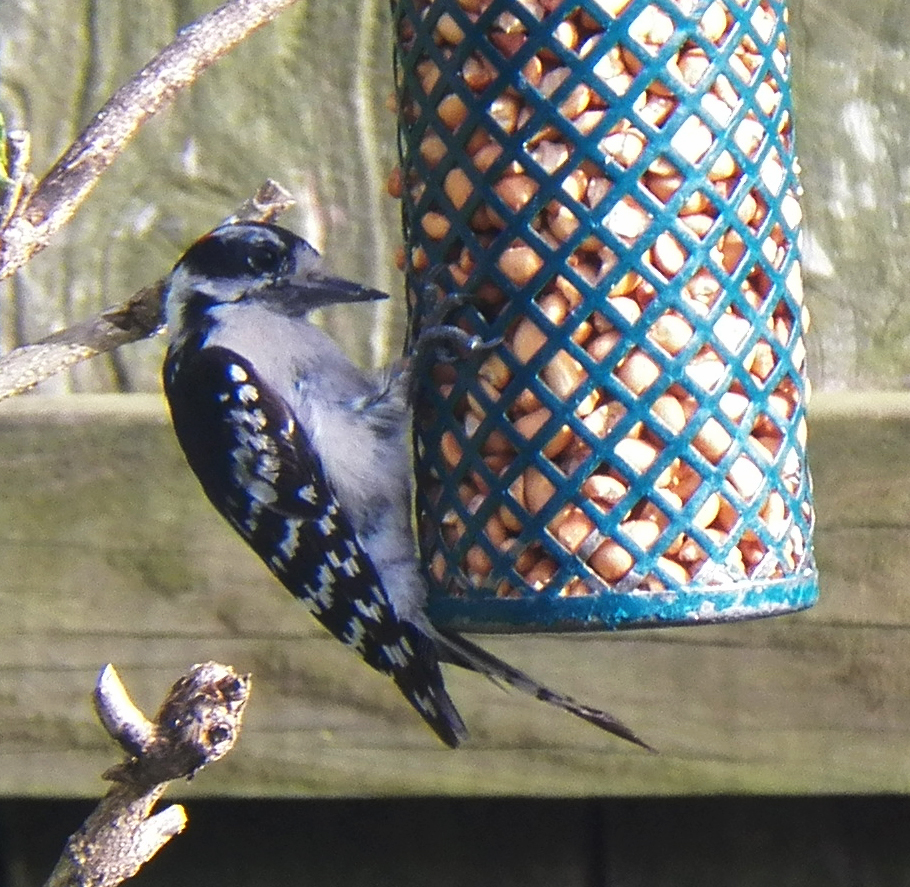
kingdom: Animalia
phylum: Chordata
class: Aves
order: Piciformes
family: Picidae
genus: Dryobates
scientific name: Dryobates pubescens
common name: Downy woodpecker
